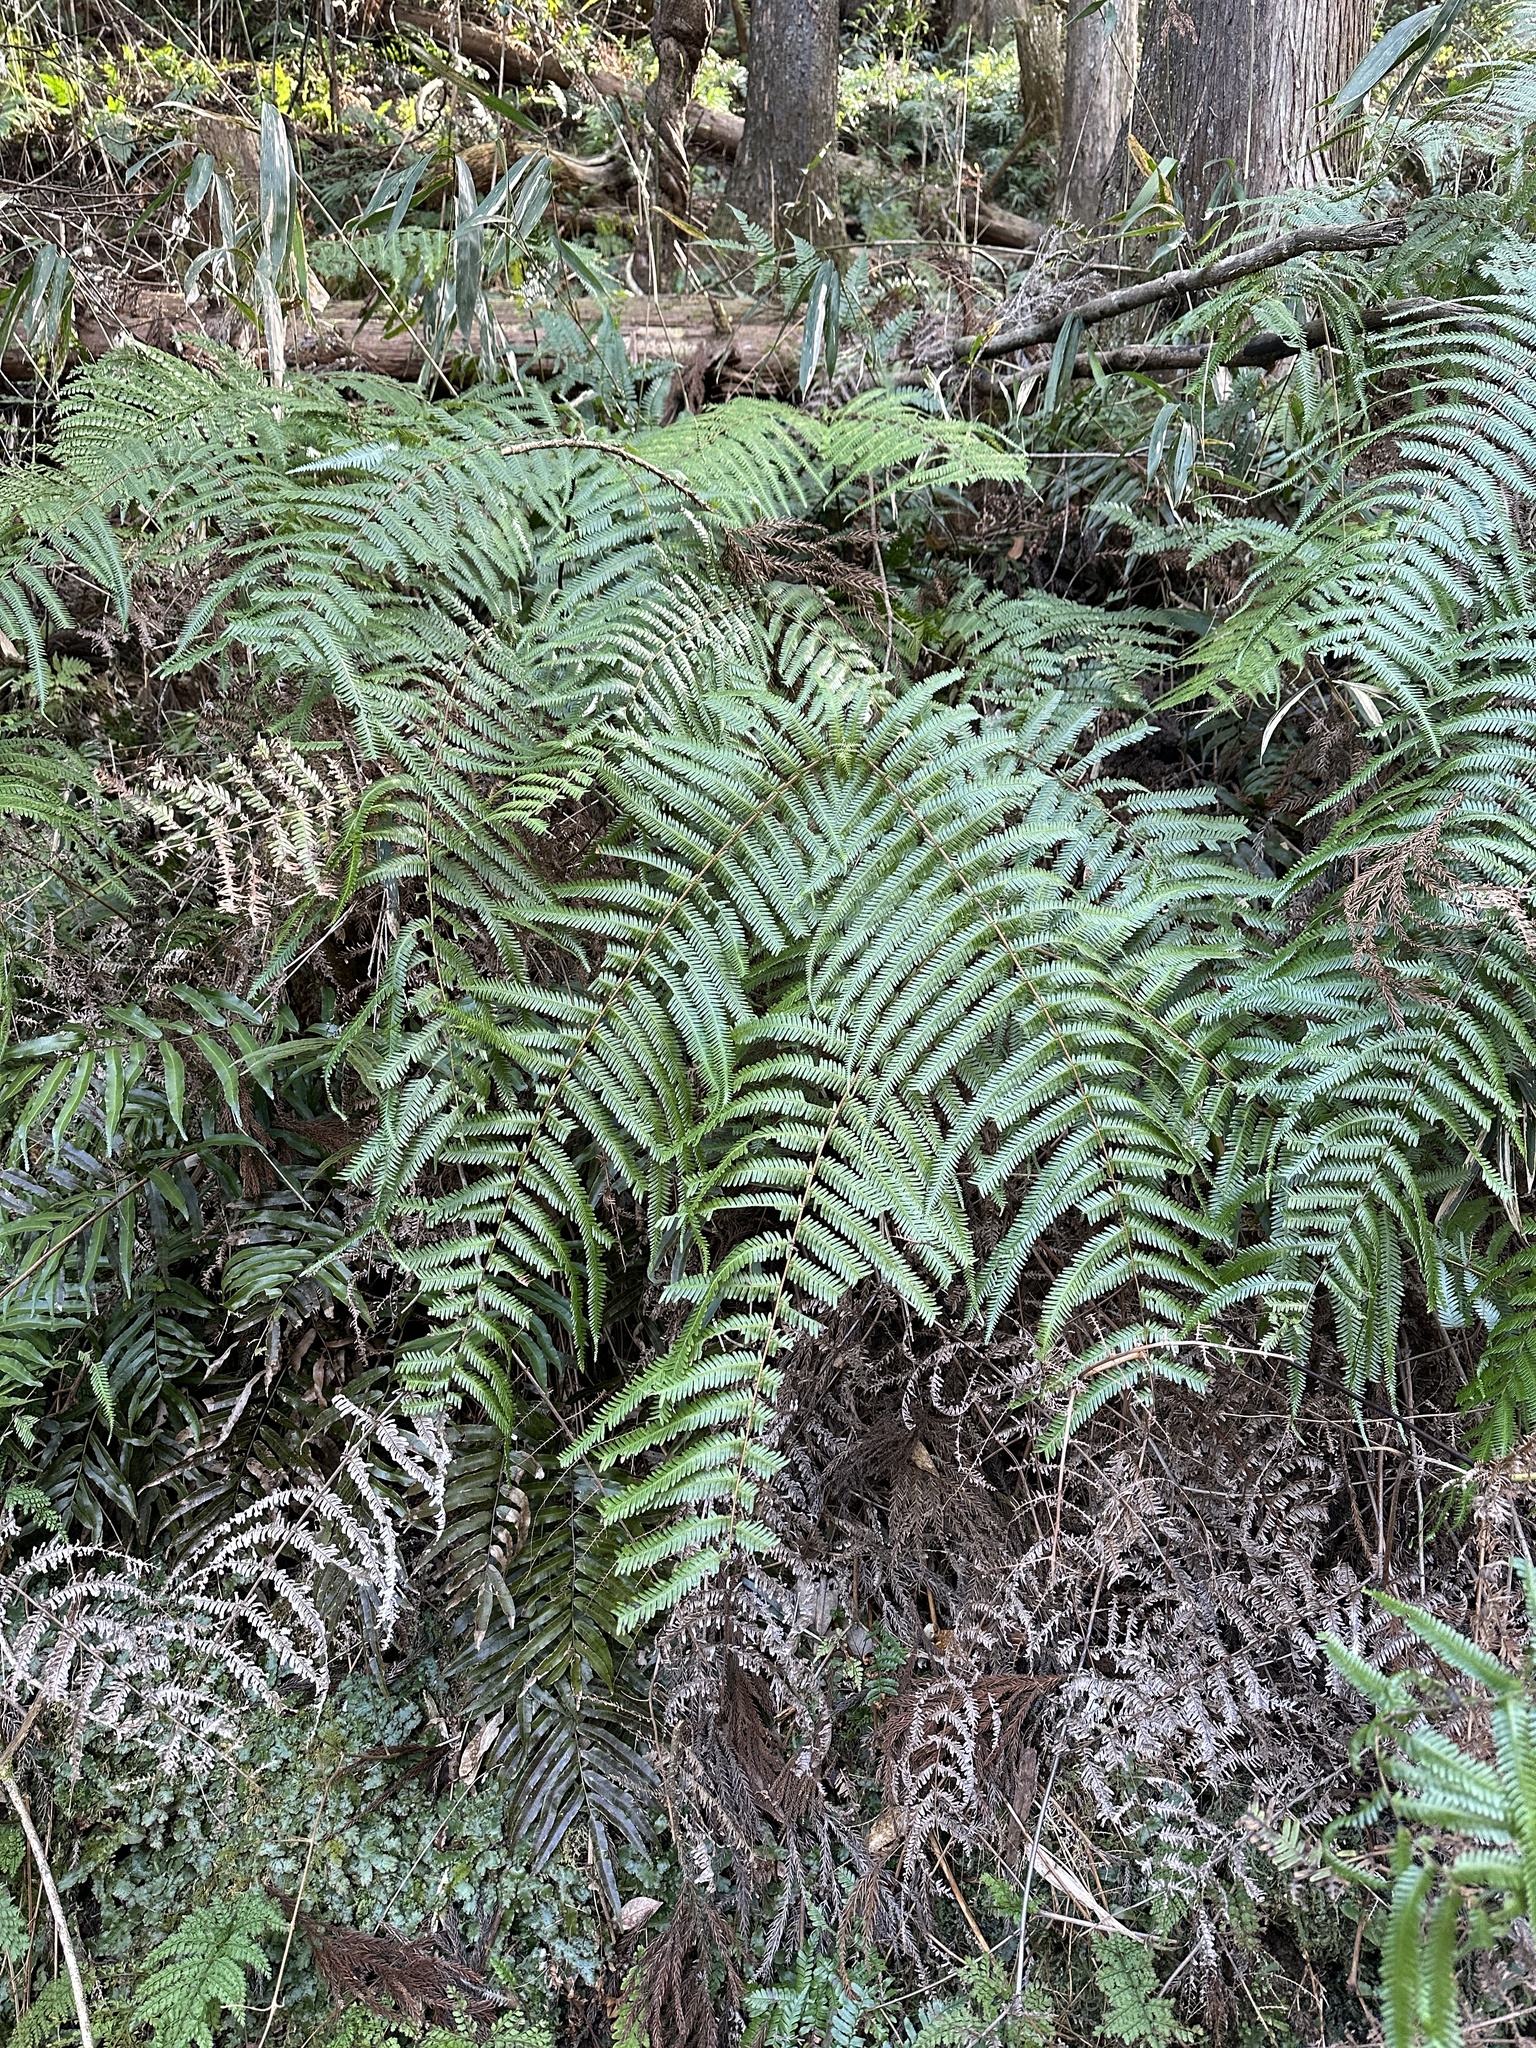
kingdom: Plantae
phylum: Tracheophyta
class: Polypodiopsida
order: Gleicheniales
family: Gleicheniaceae
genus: Diplopterygium
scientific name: Diplopterygium glaucum
